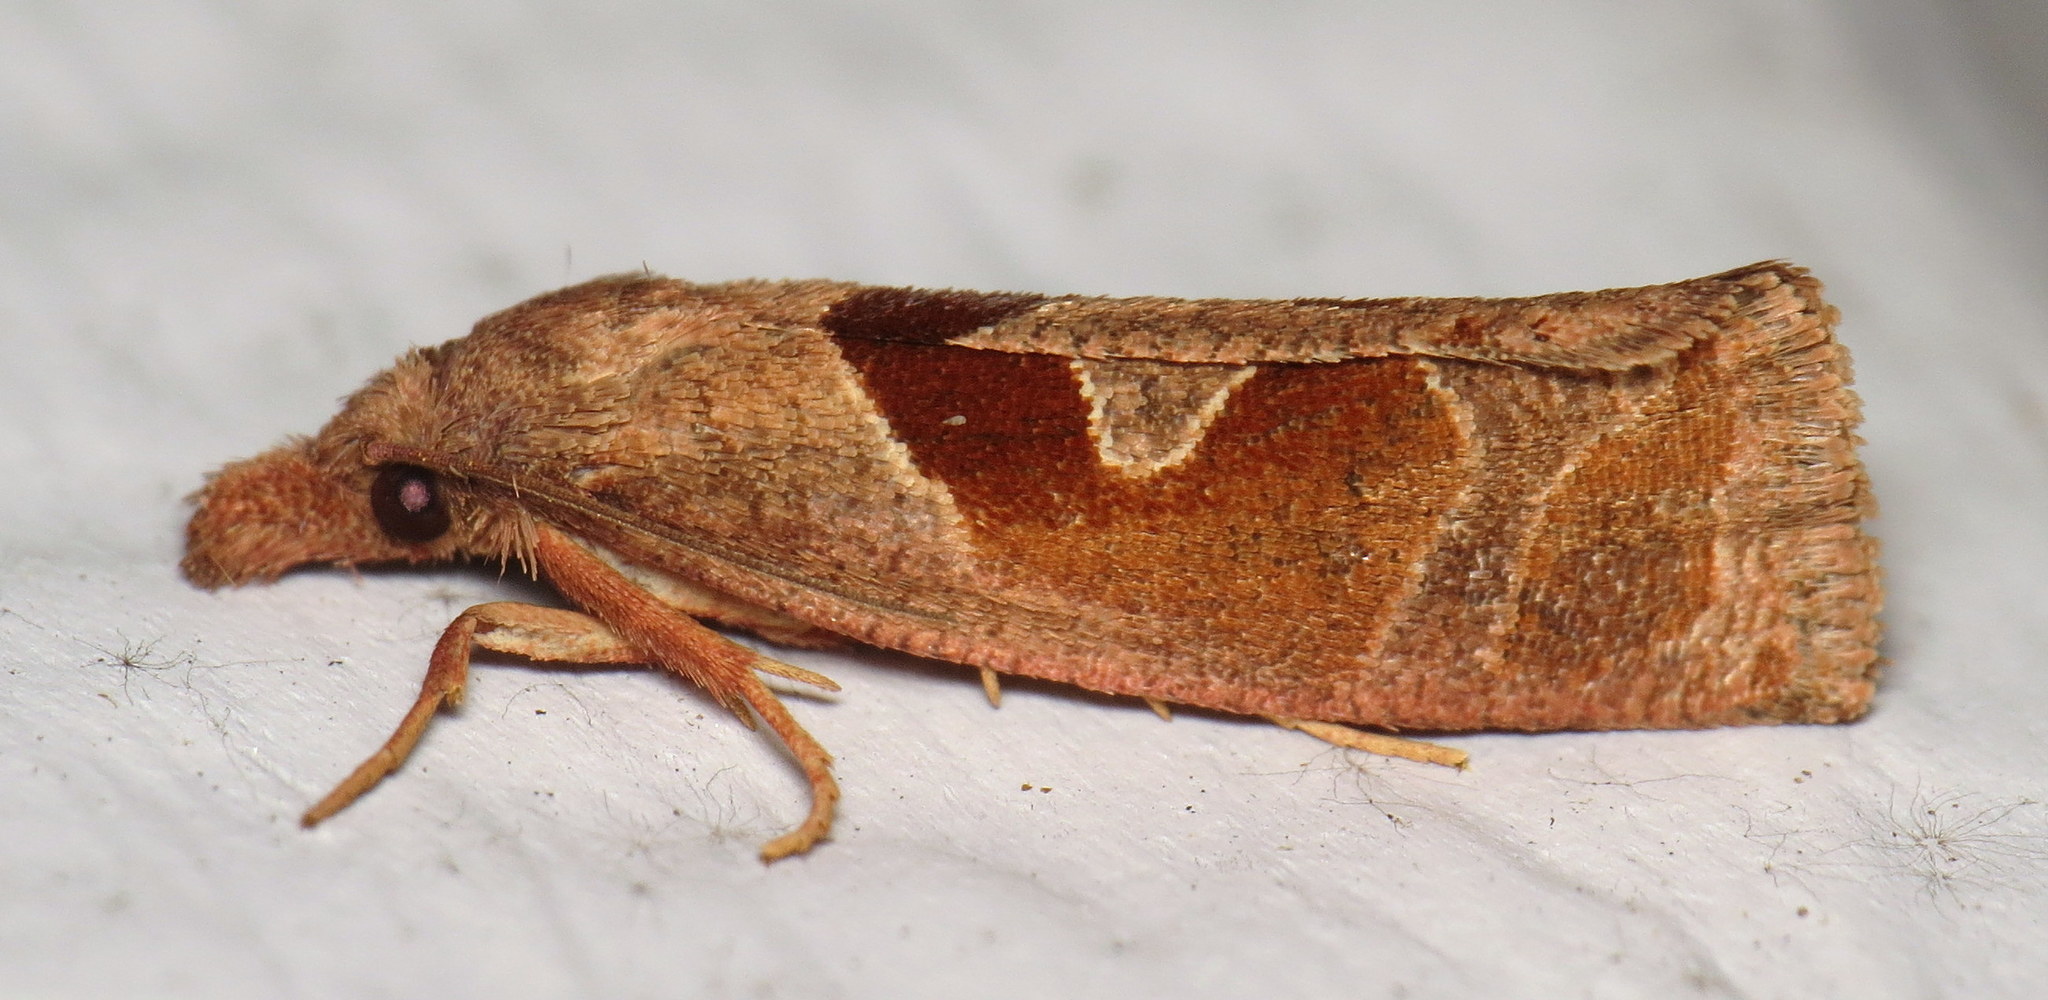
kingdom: Animalia
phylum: Arthropoda
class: Insecta
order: Lepidoptera
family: Tortricidae
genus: Pelochrista
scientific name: Pelochrista similiana
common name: Similar eucosma
